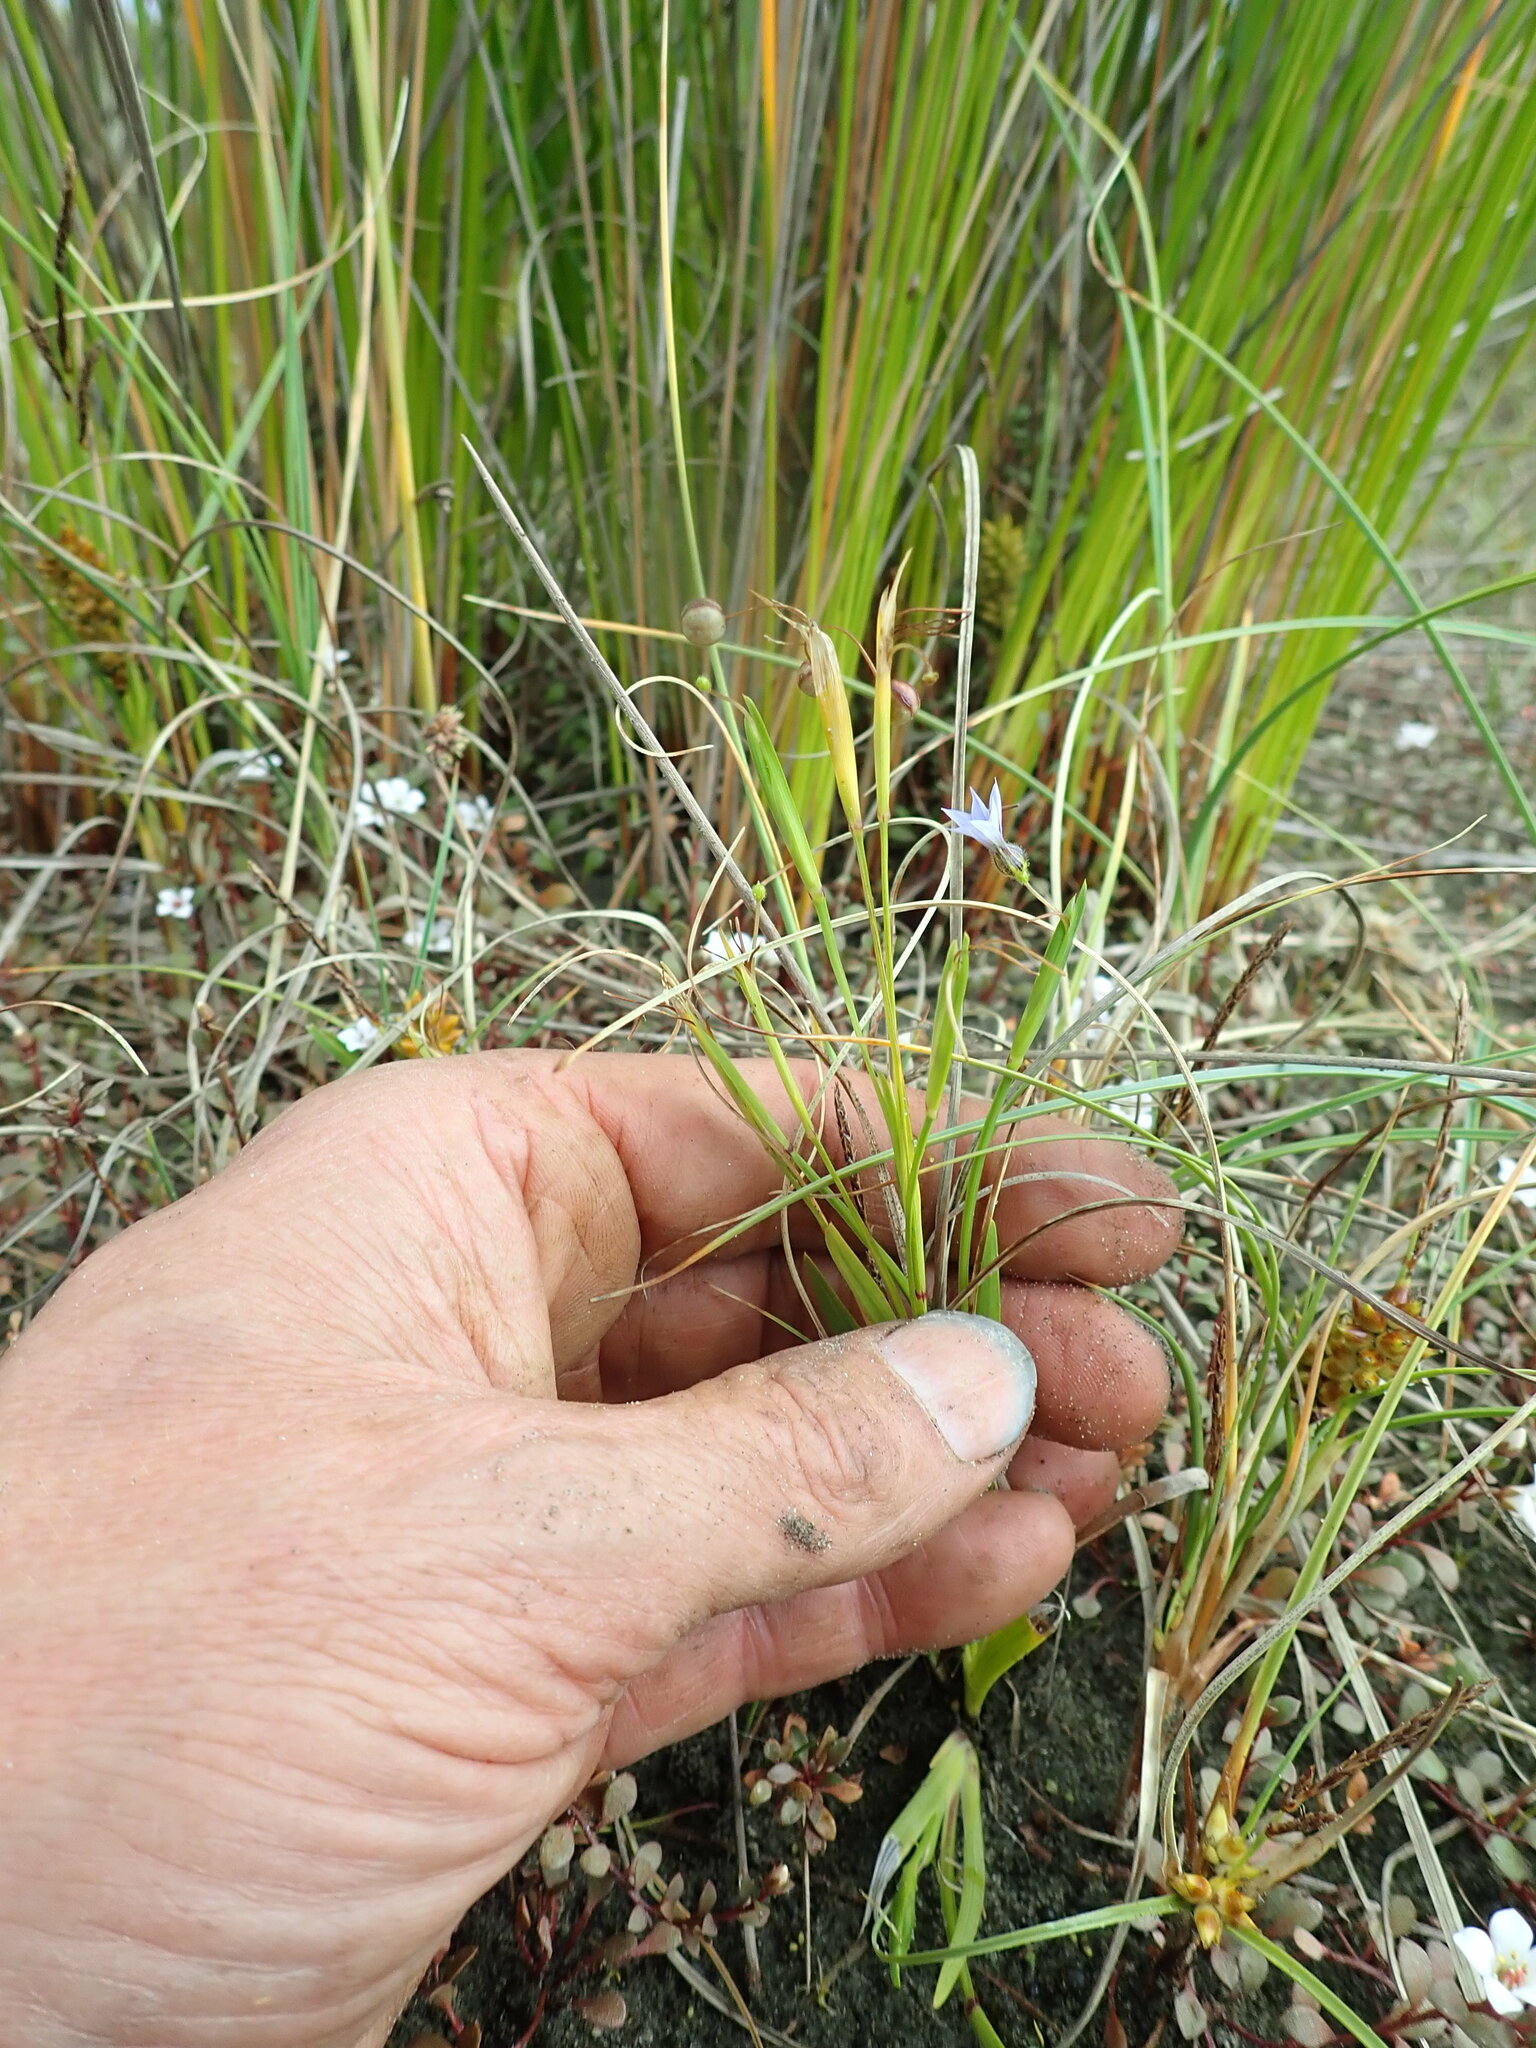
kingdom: Plantae
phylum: Tracheophyta
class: Liliopsida
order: Asparagales
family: Iridaceae
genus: Sisyrinchium
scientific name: Sisyrinchium micranthum
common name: Bermuda pigroot
